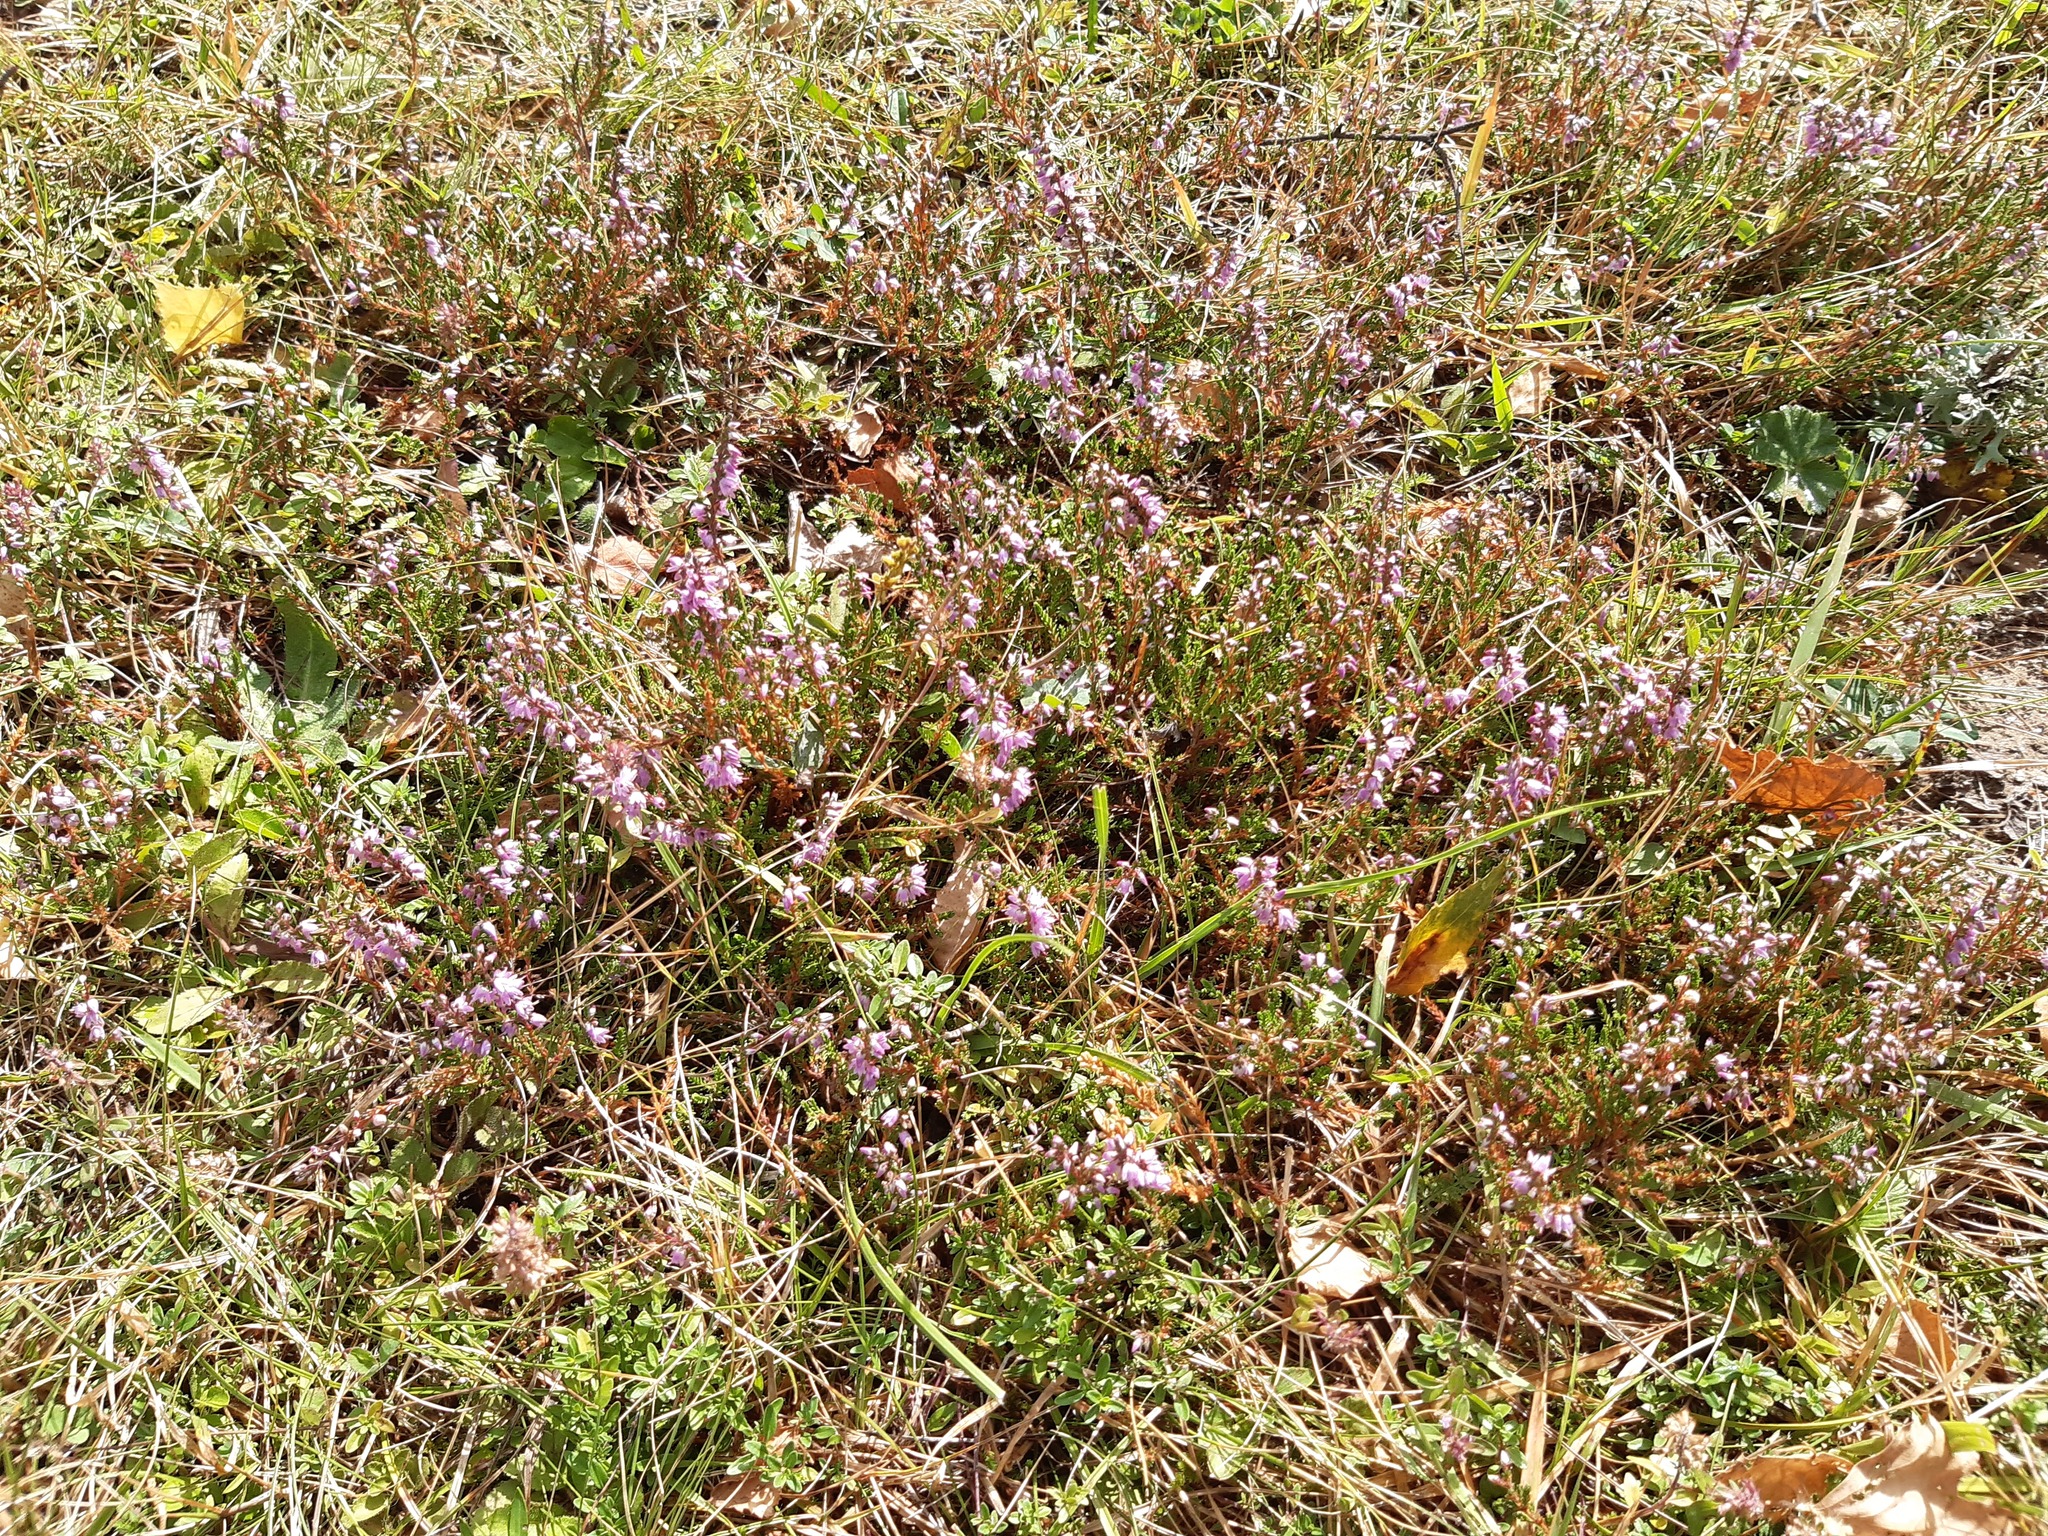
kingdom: Plantae
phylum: Tracheophyta
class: Magnoliopsida
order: Ericales
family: Ericaceae
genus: Calluna
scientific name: Calluna vulgaris
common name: Heather
